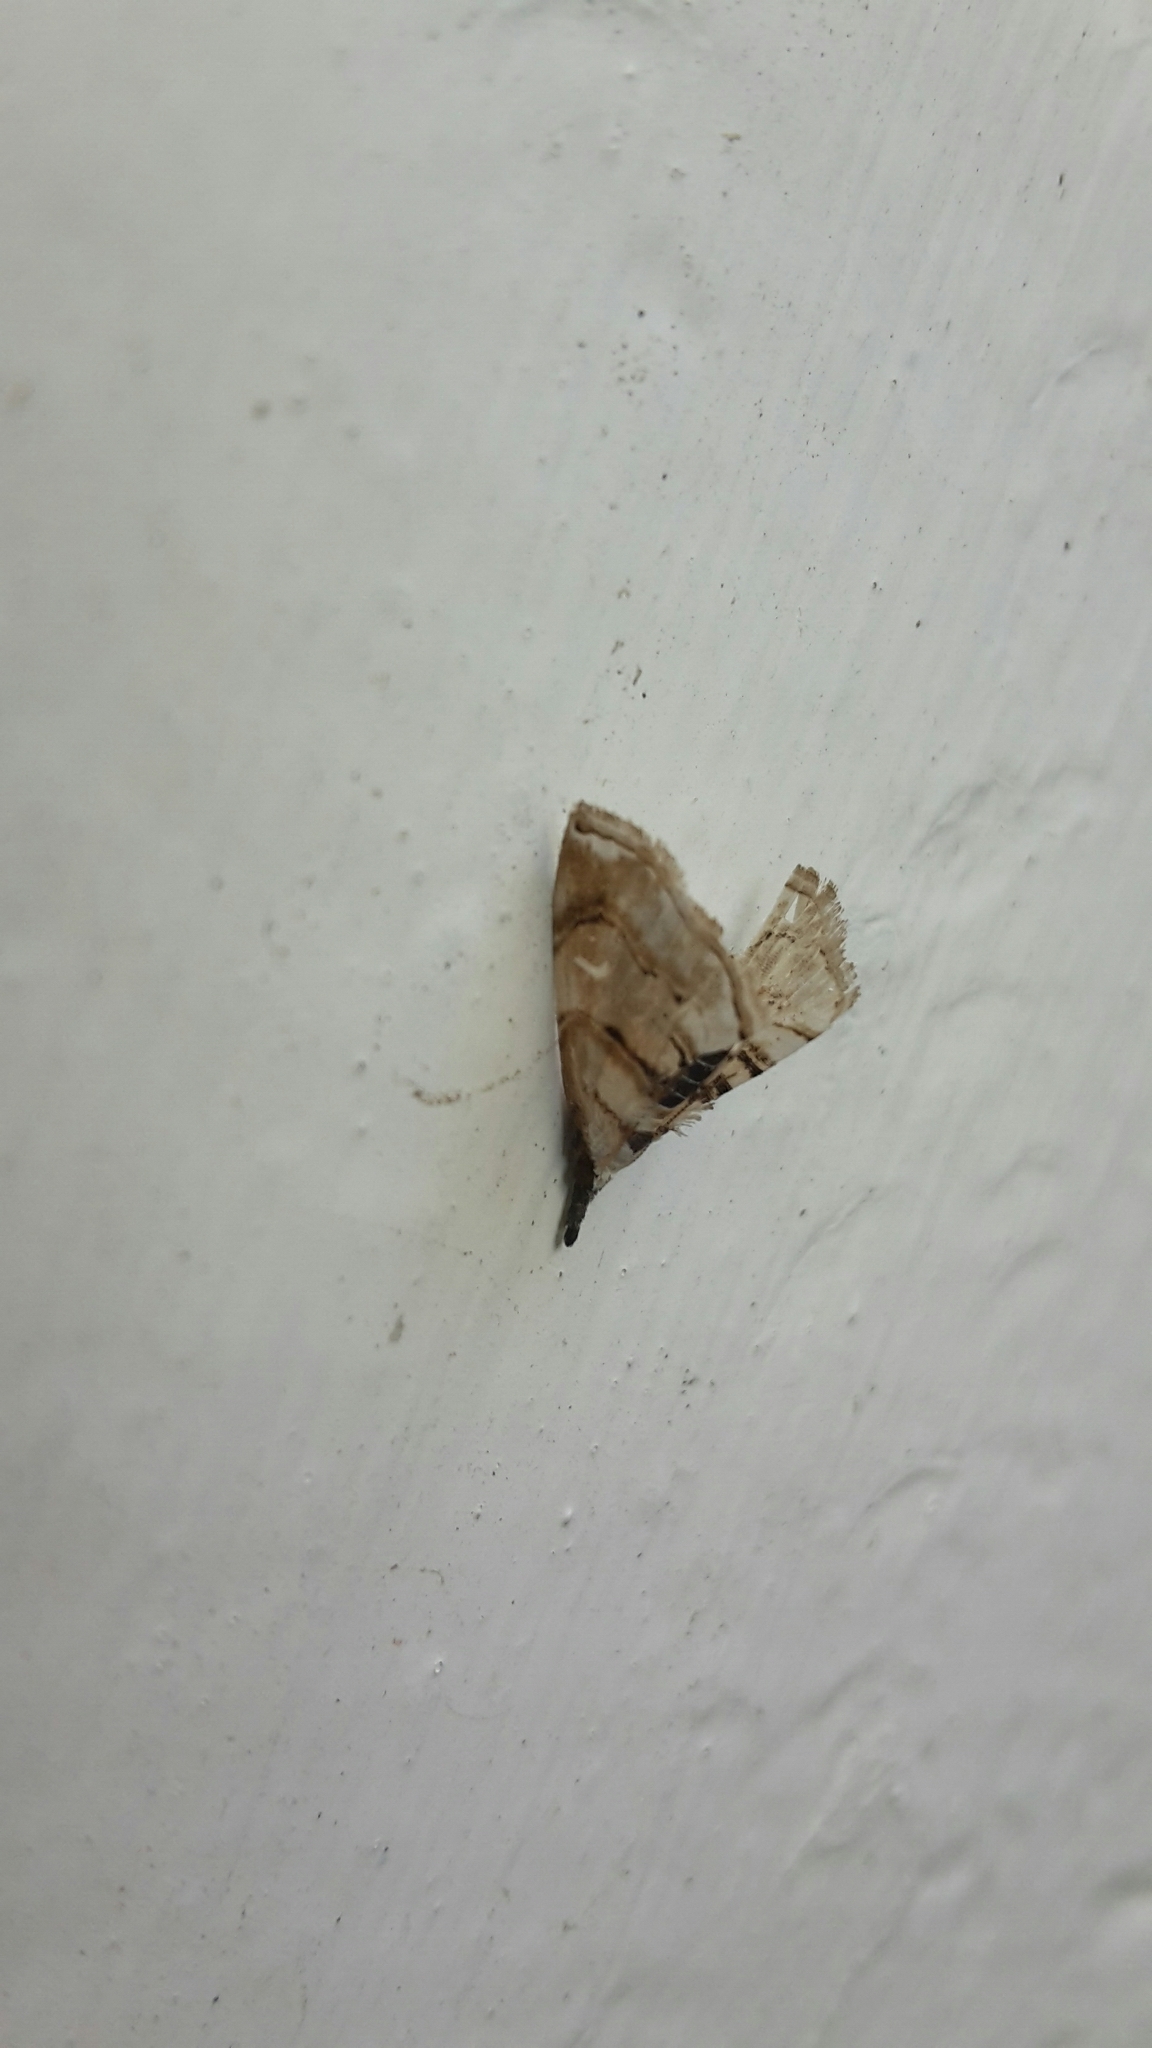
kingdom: Animalia
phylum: Arthropoda
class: Insecta
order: Lepidoptera
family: Crambidae
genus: Trichophysetis
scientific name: Trichophysetis
